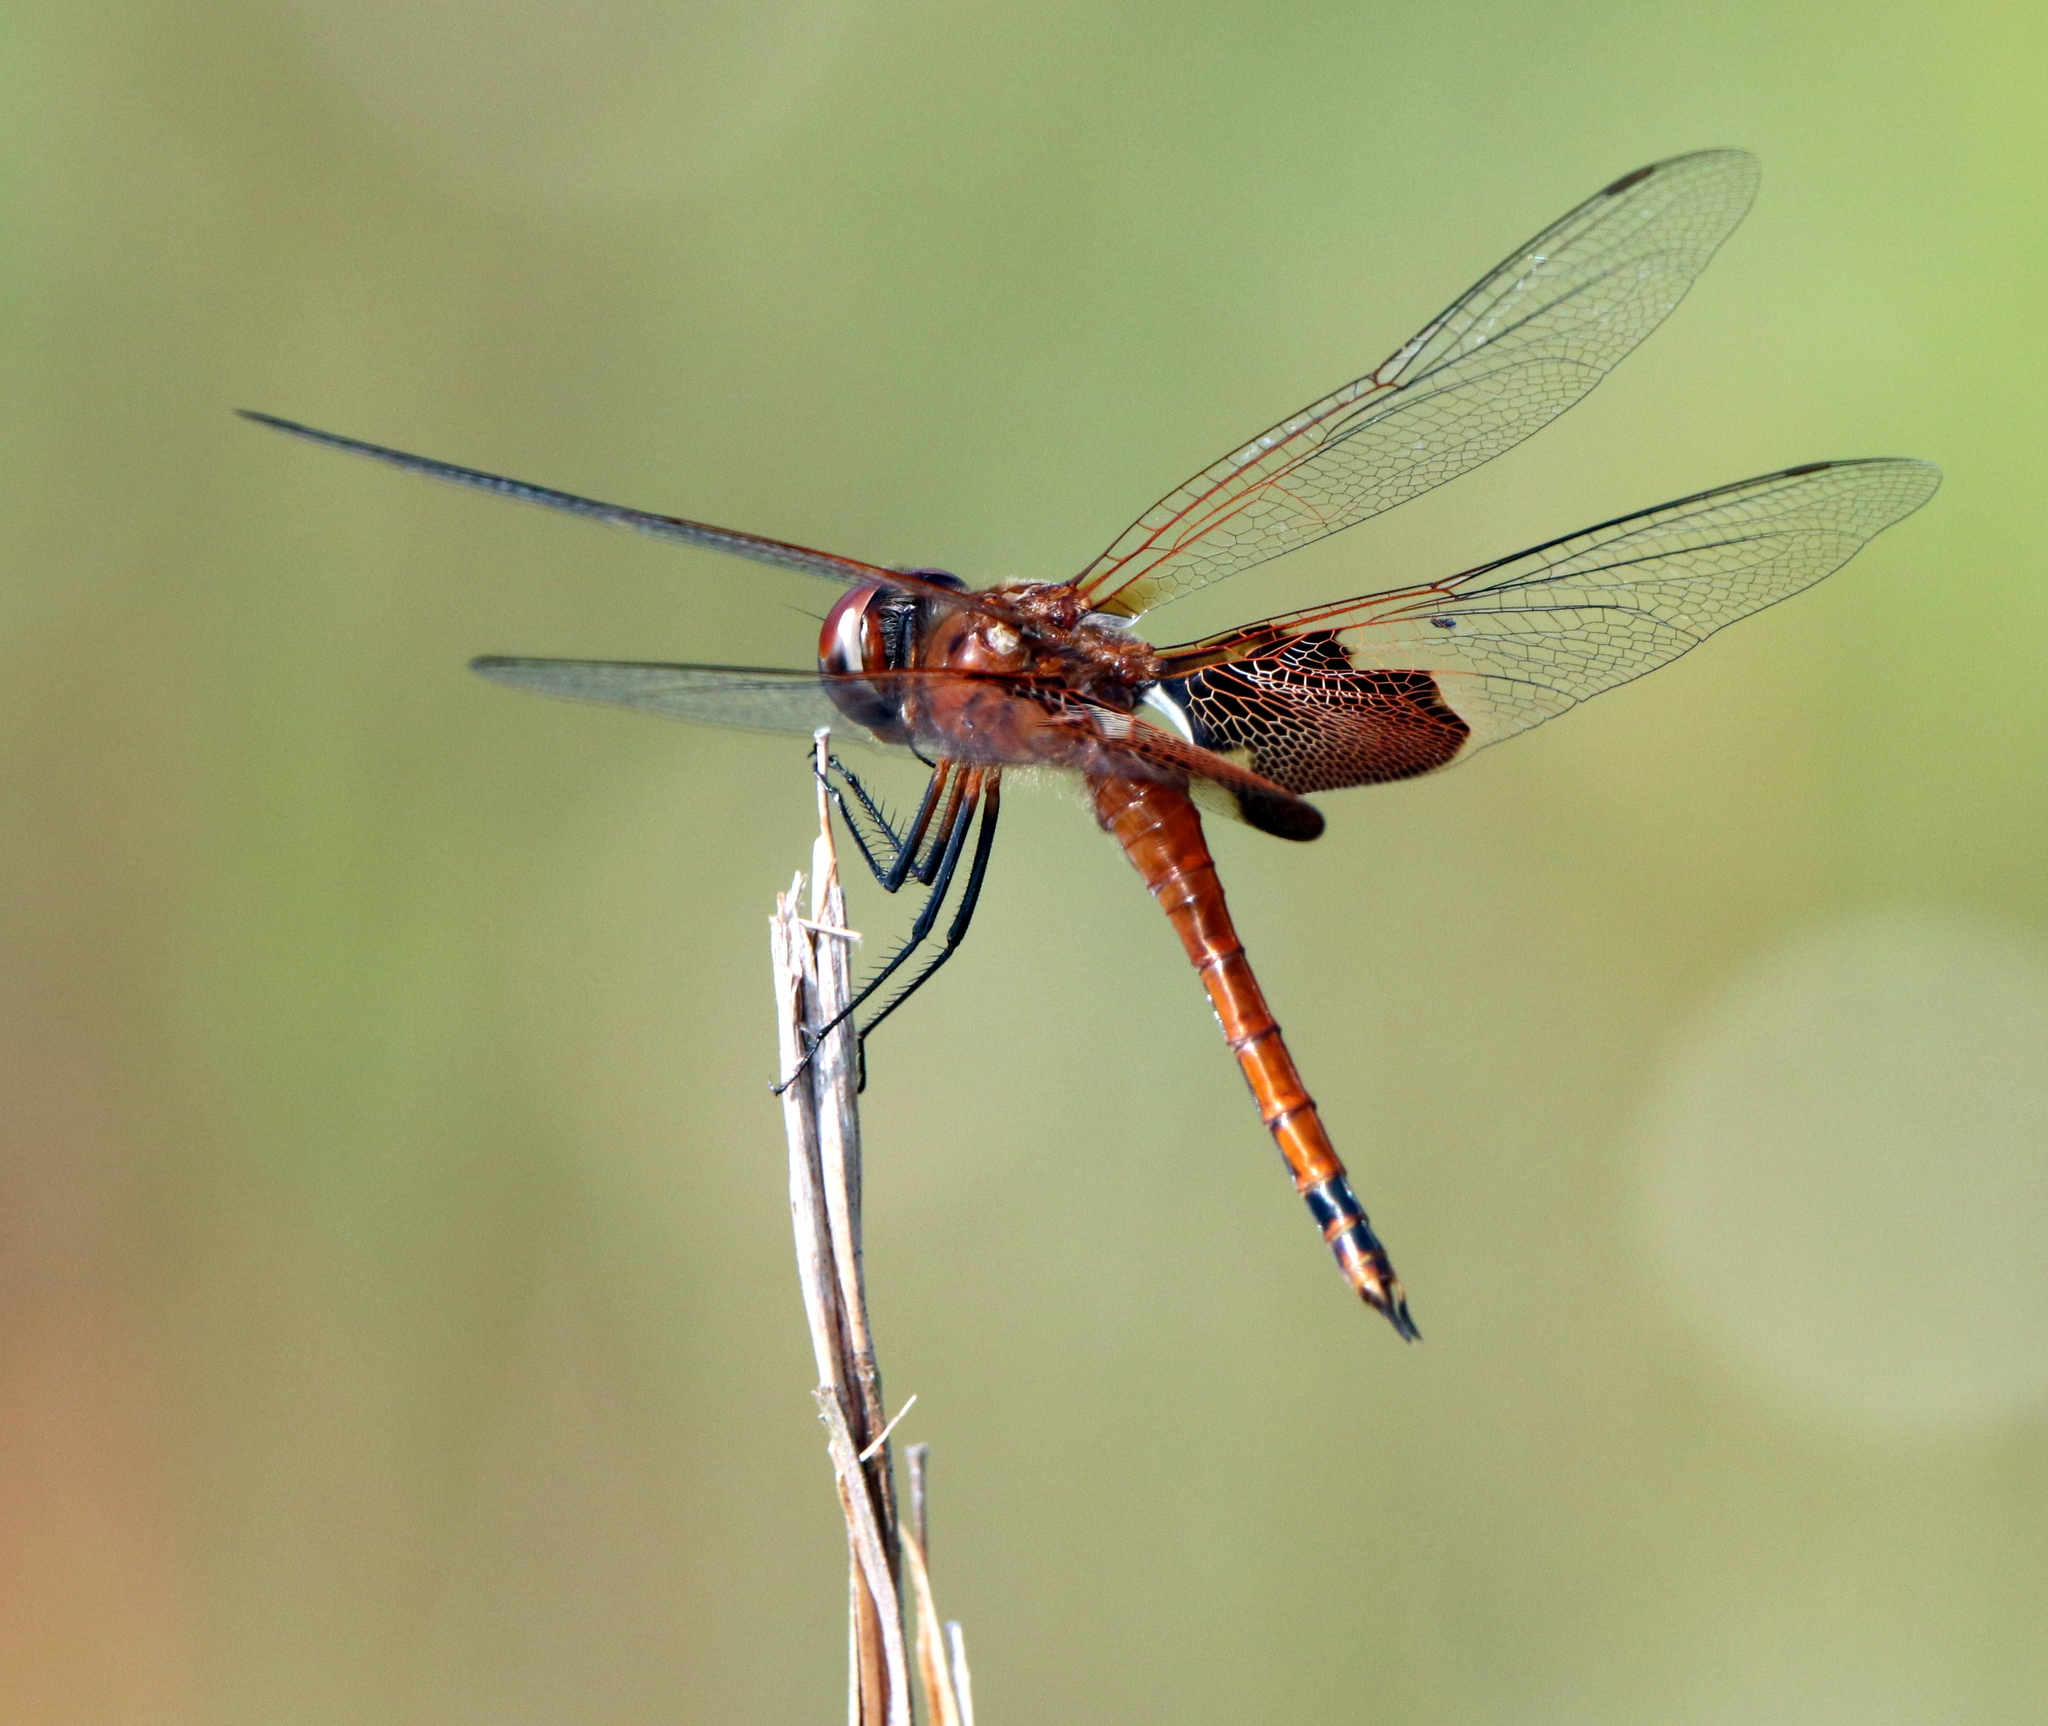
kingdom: Animalia
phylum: Arthropoda
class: Insecta
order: Odonata
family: Libellulidae
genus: Tramea
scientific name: Tramea onusta
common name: Red saddlebags
